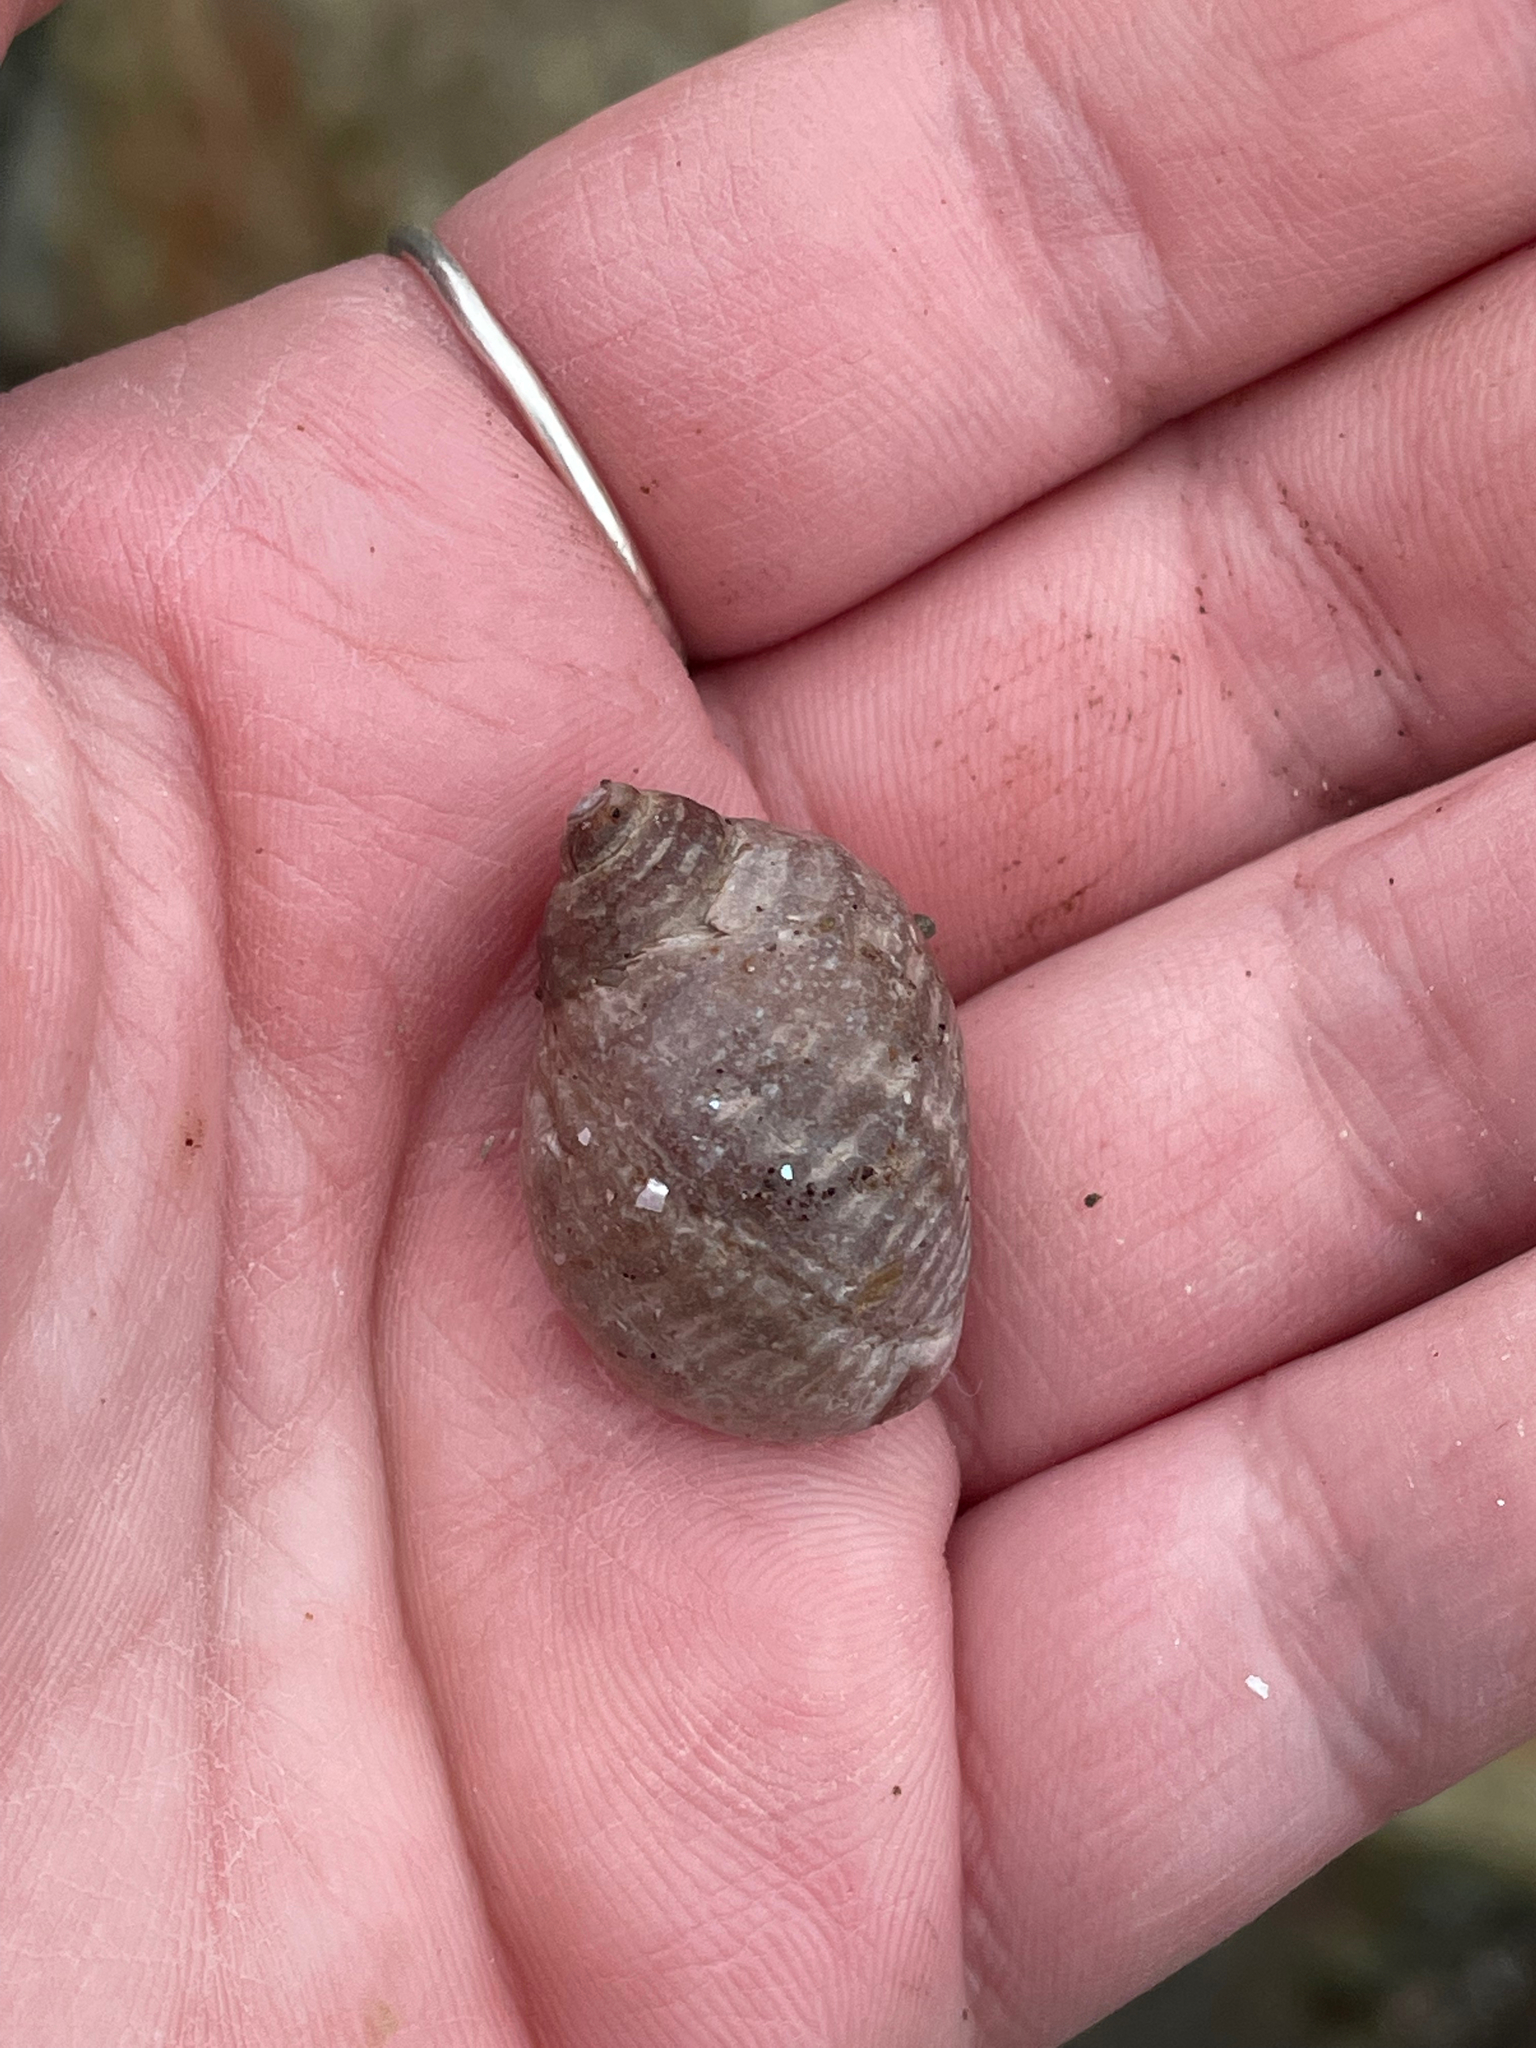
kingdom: Animalia
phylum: Mollusca
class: Gastropoda
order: Neogastropoda
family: Muricidae
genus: Nucella
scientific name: Nucella lapillus
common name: Dog whelk
